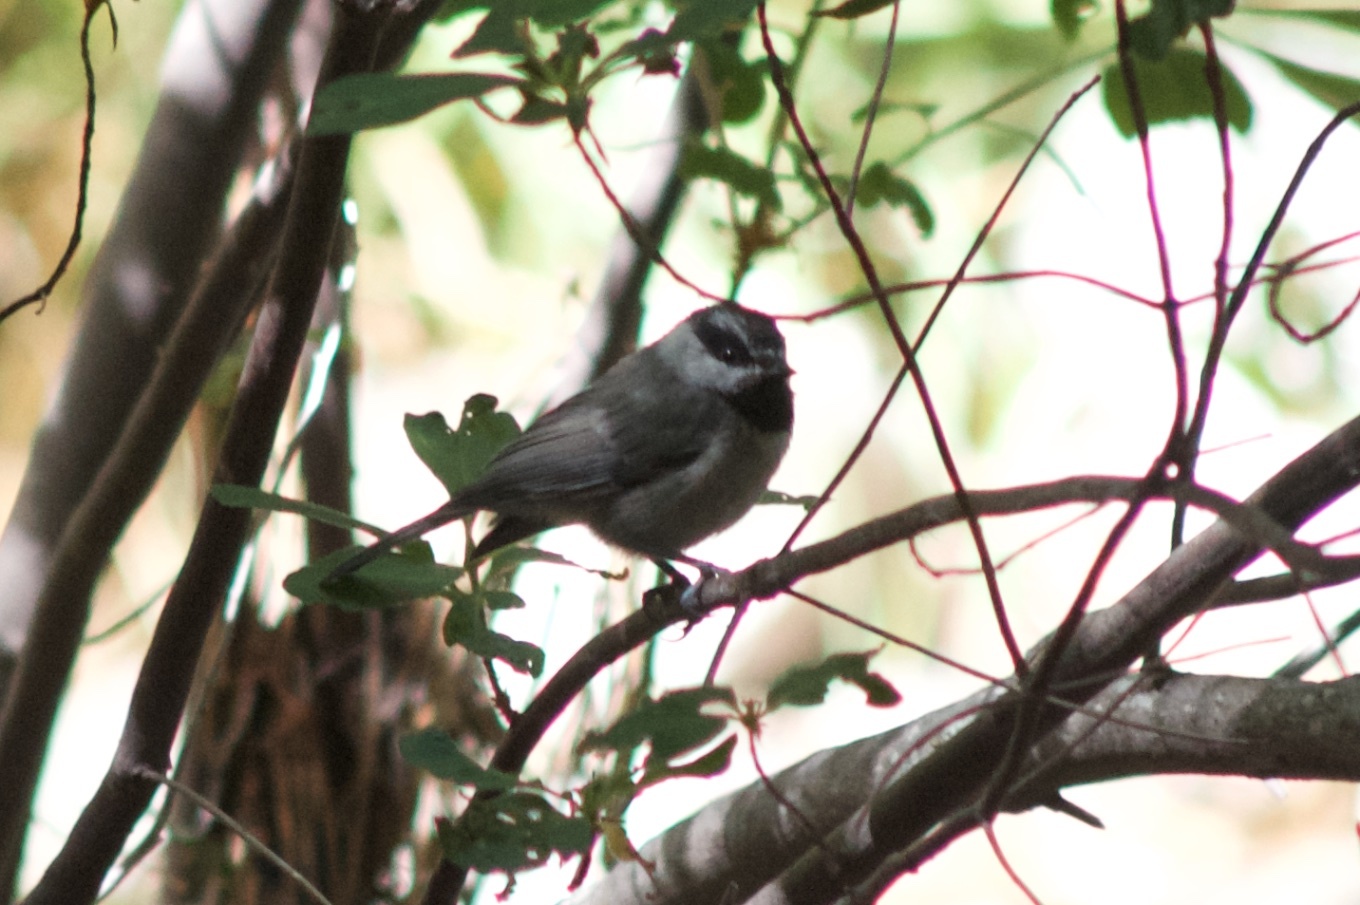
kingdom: Animalia
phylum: Chordata
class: Aves
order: Passeriformes
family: Paridae
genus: Poecile
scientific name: Poecile gambeli
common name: Mountain chickadee
